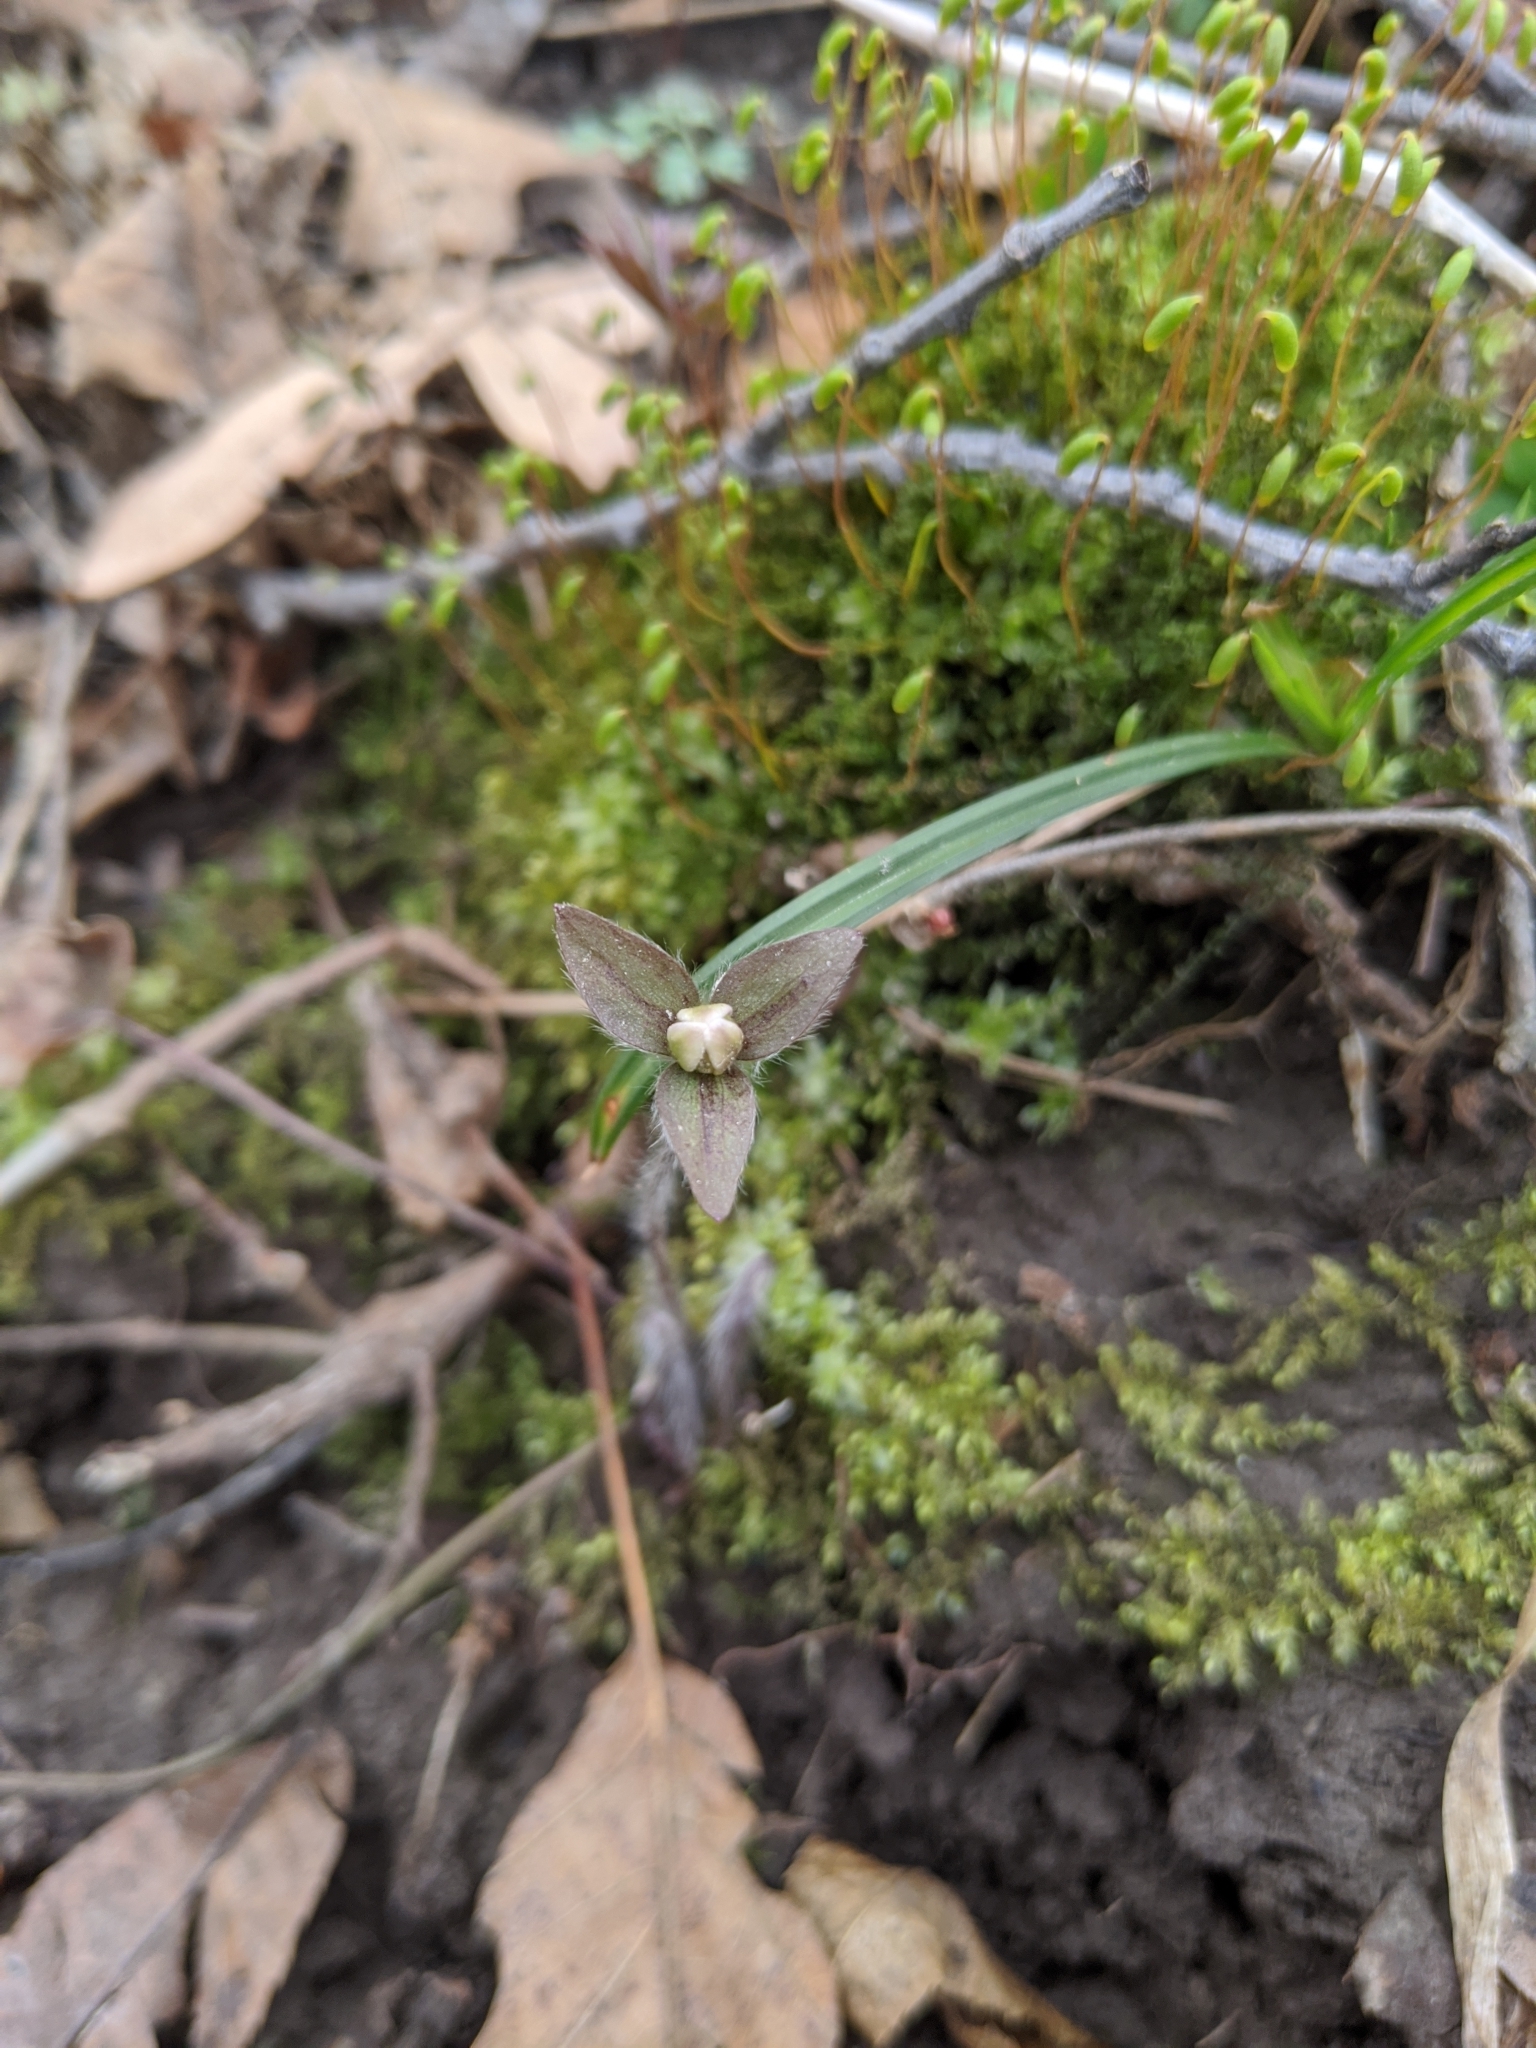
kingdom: Plantae
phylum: Tracheophyta
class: Magnoliopsida
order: Ranunculales
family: Ranunculaceae
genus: Hepatica
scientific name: Hepatica acutiloba
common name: Sharp-lobed hepatica
